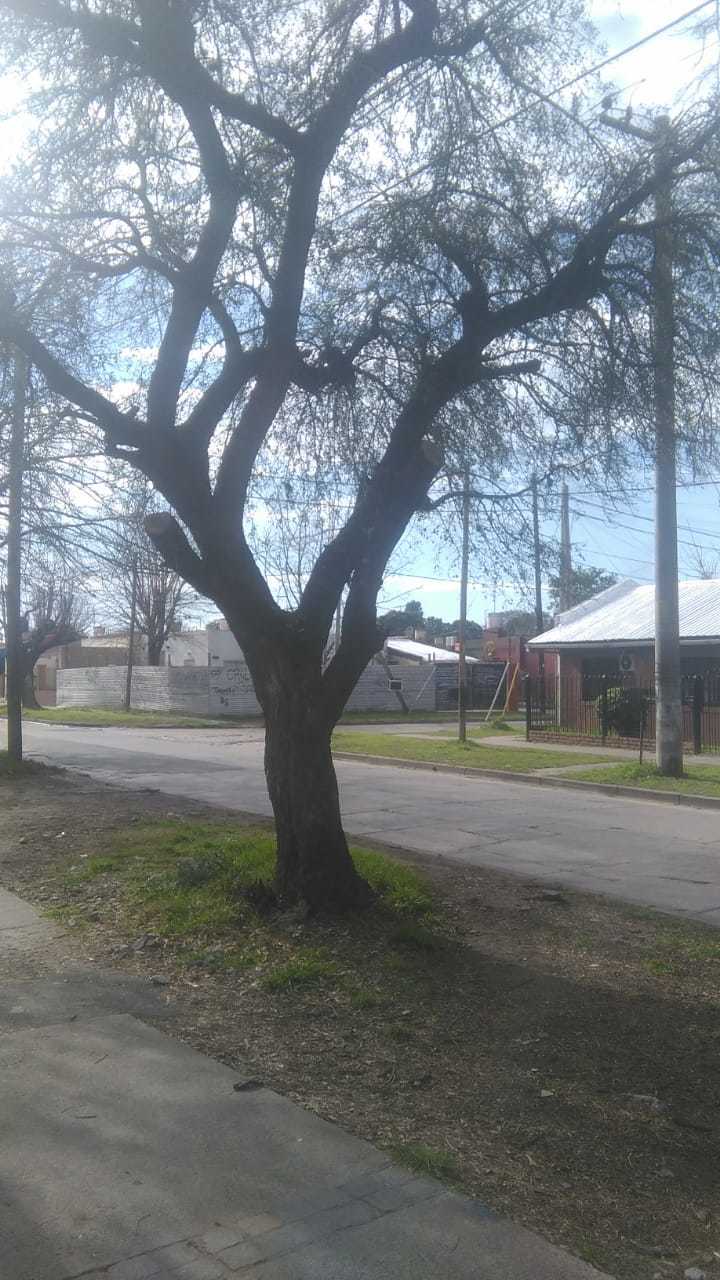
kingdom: Plantae
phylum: Tracheophyta
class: Magnoliopsida
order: Rosales
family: Cannabaceae
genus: Celtis
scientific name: Celtis tala
